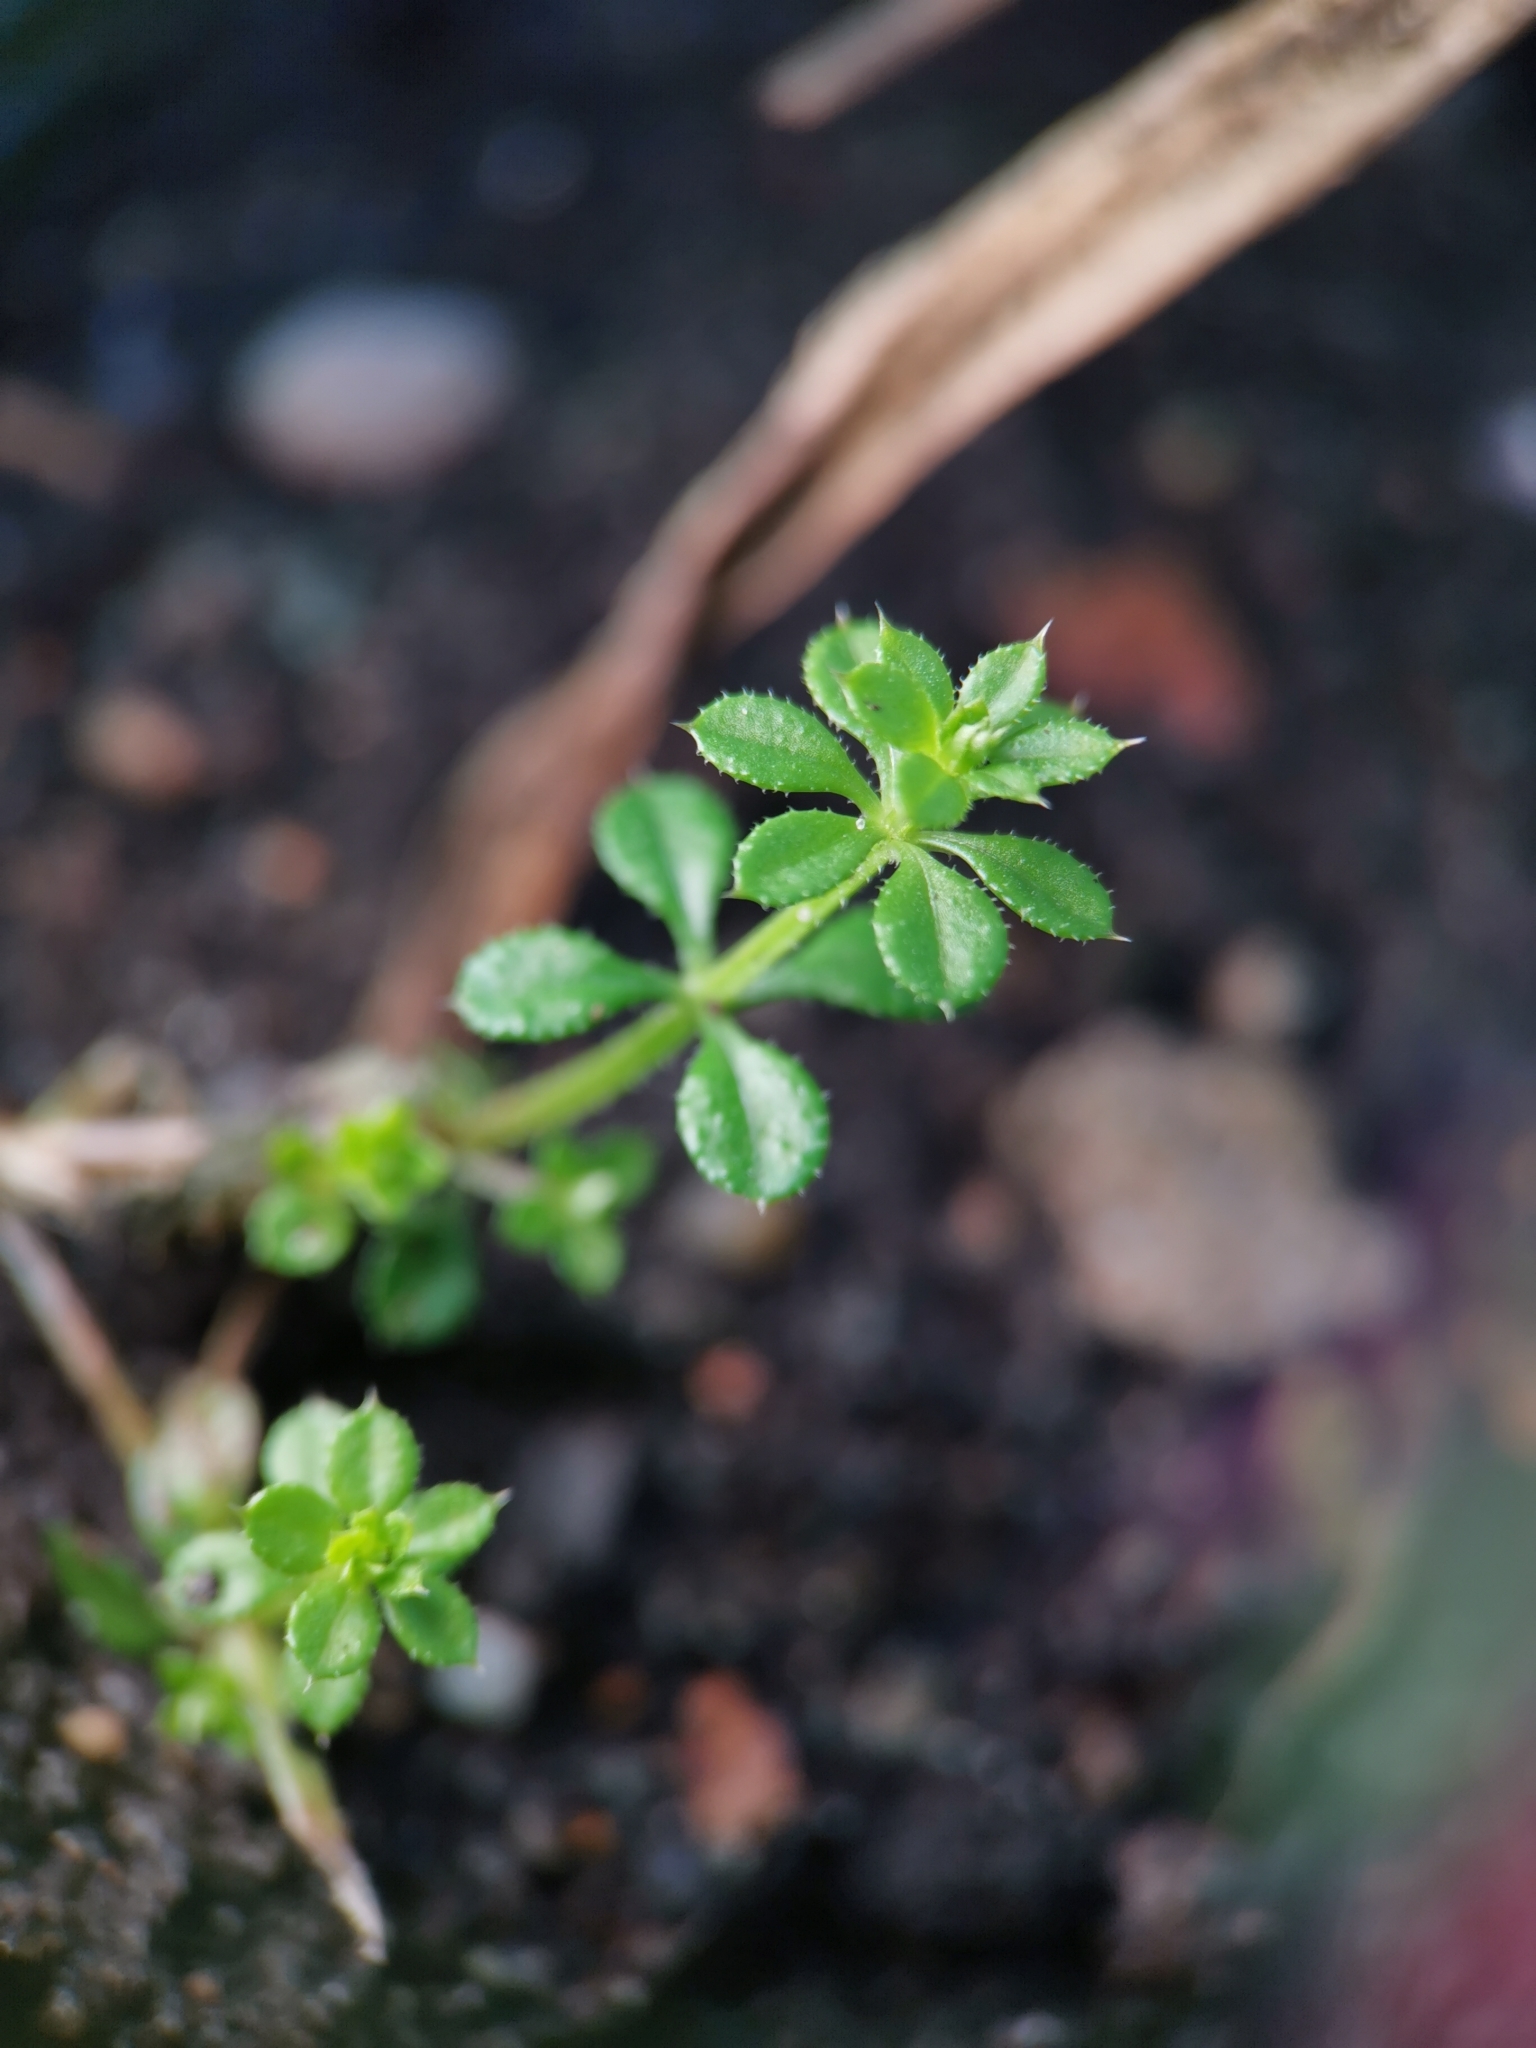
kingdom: Plantae
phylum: Tracheophyta
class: Magnoliopsida
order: Gentianales
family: Rubiaceae
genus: Galium
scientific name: Galium aparine
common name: Cleavers
